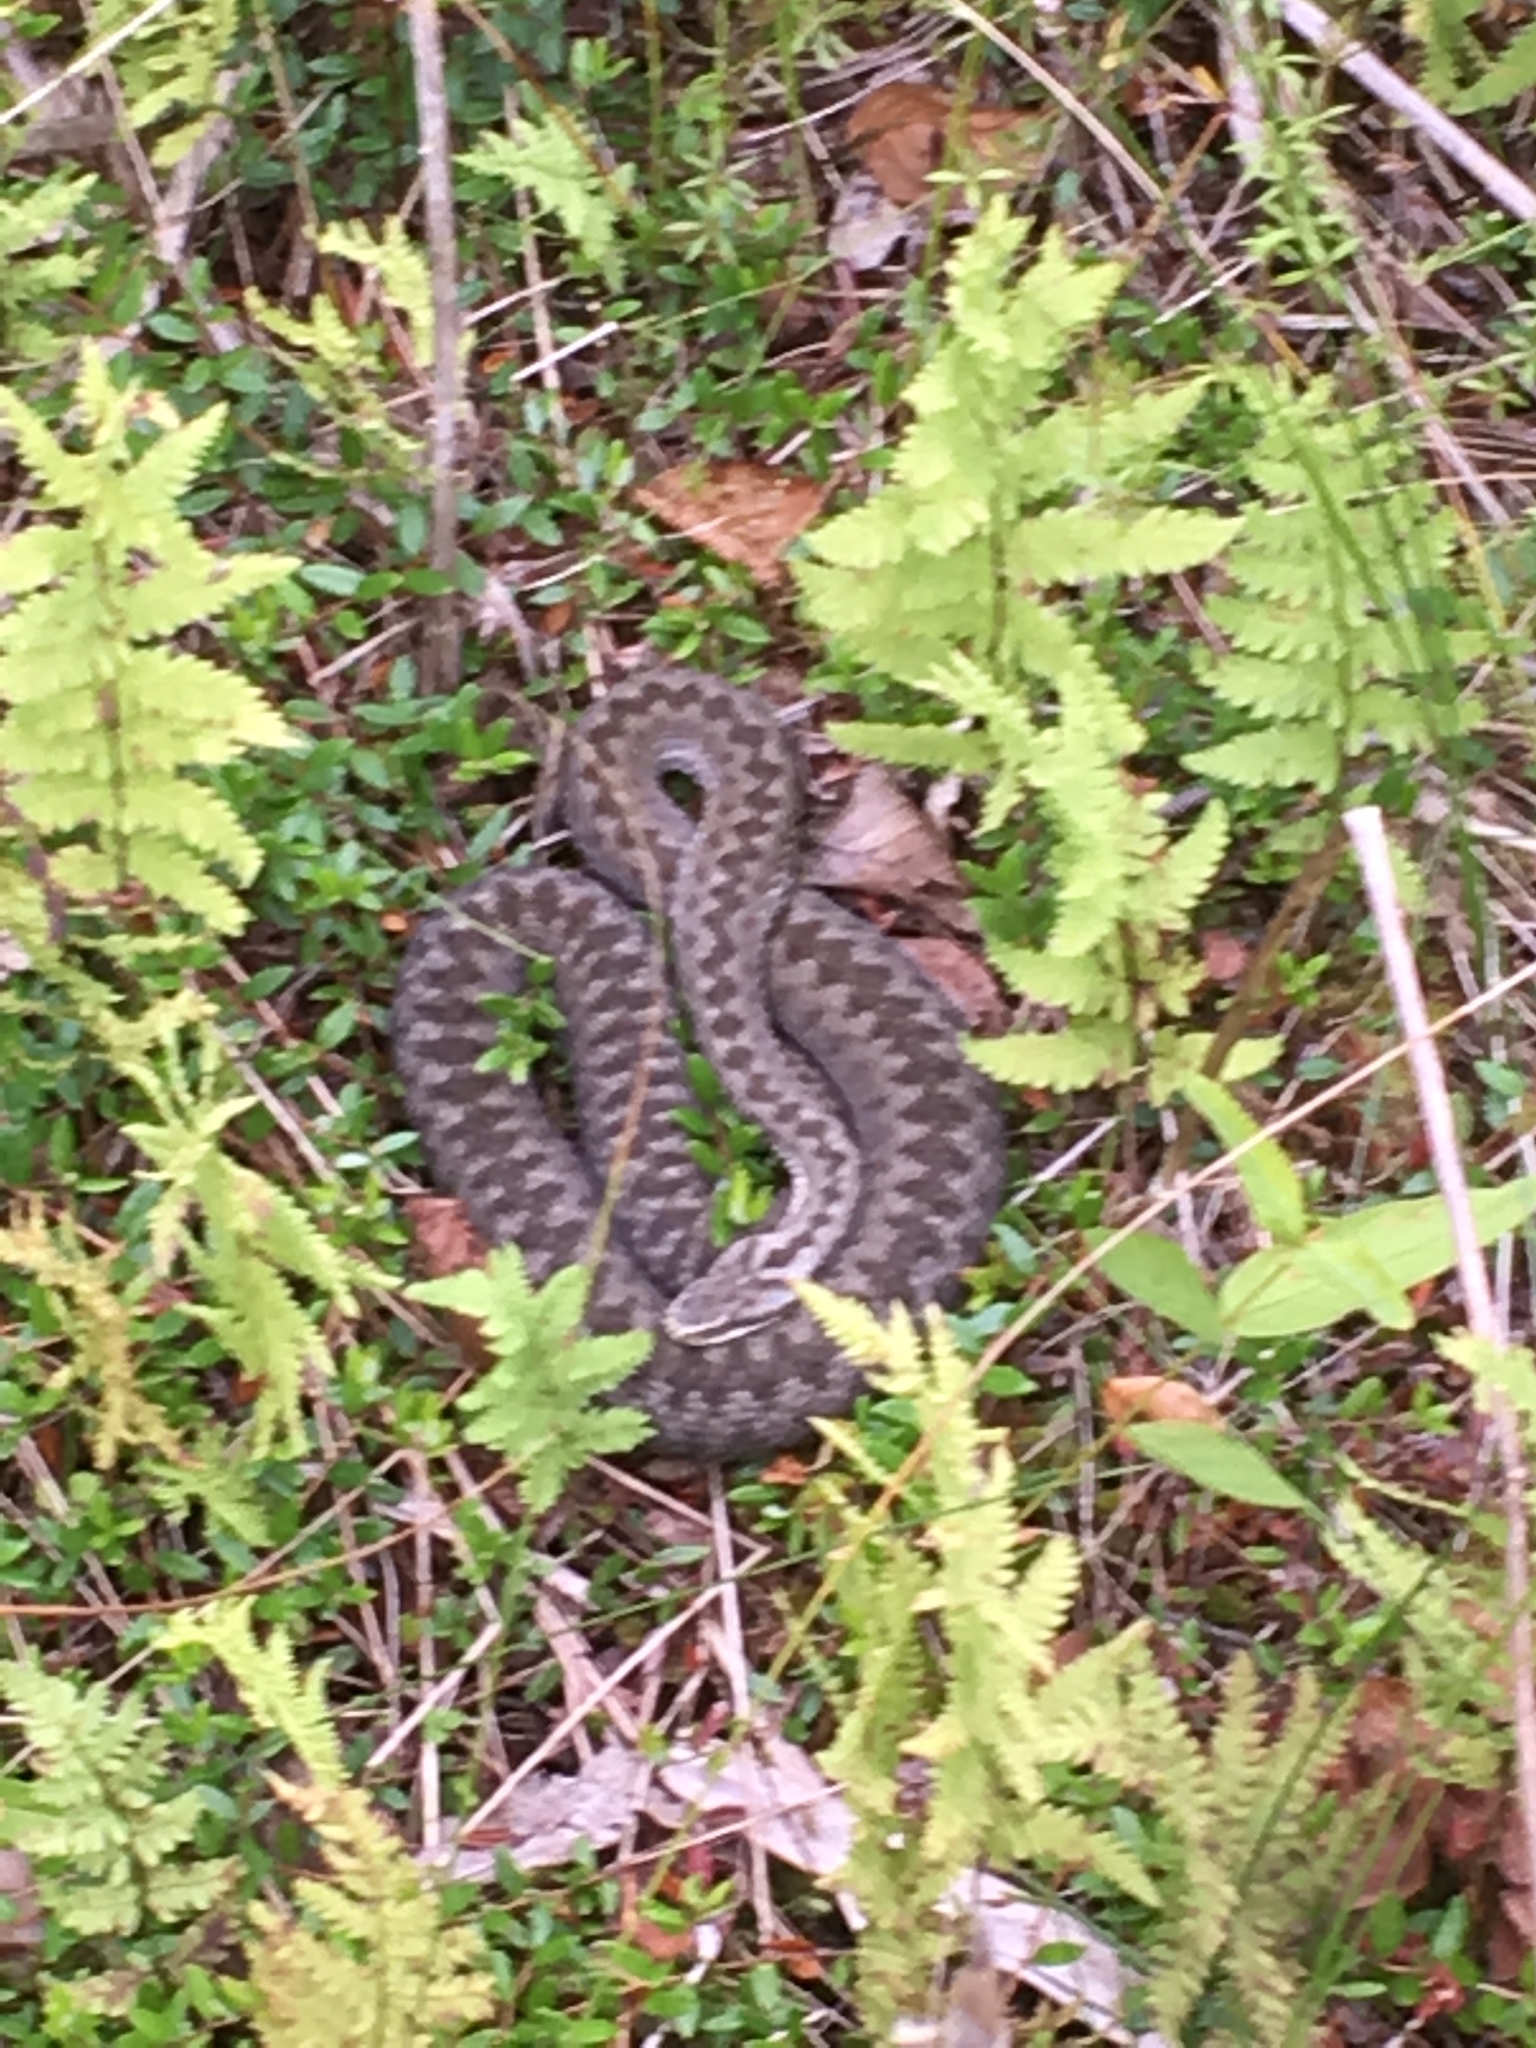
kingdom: Animalia
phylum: Chordata
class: Squamata
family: Viperidae
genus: Vipera
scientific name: Vipera berus
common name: Adder
